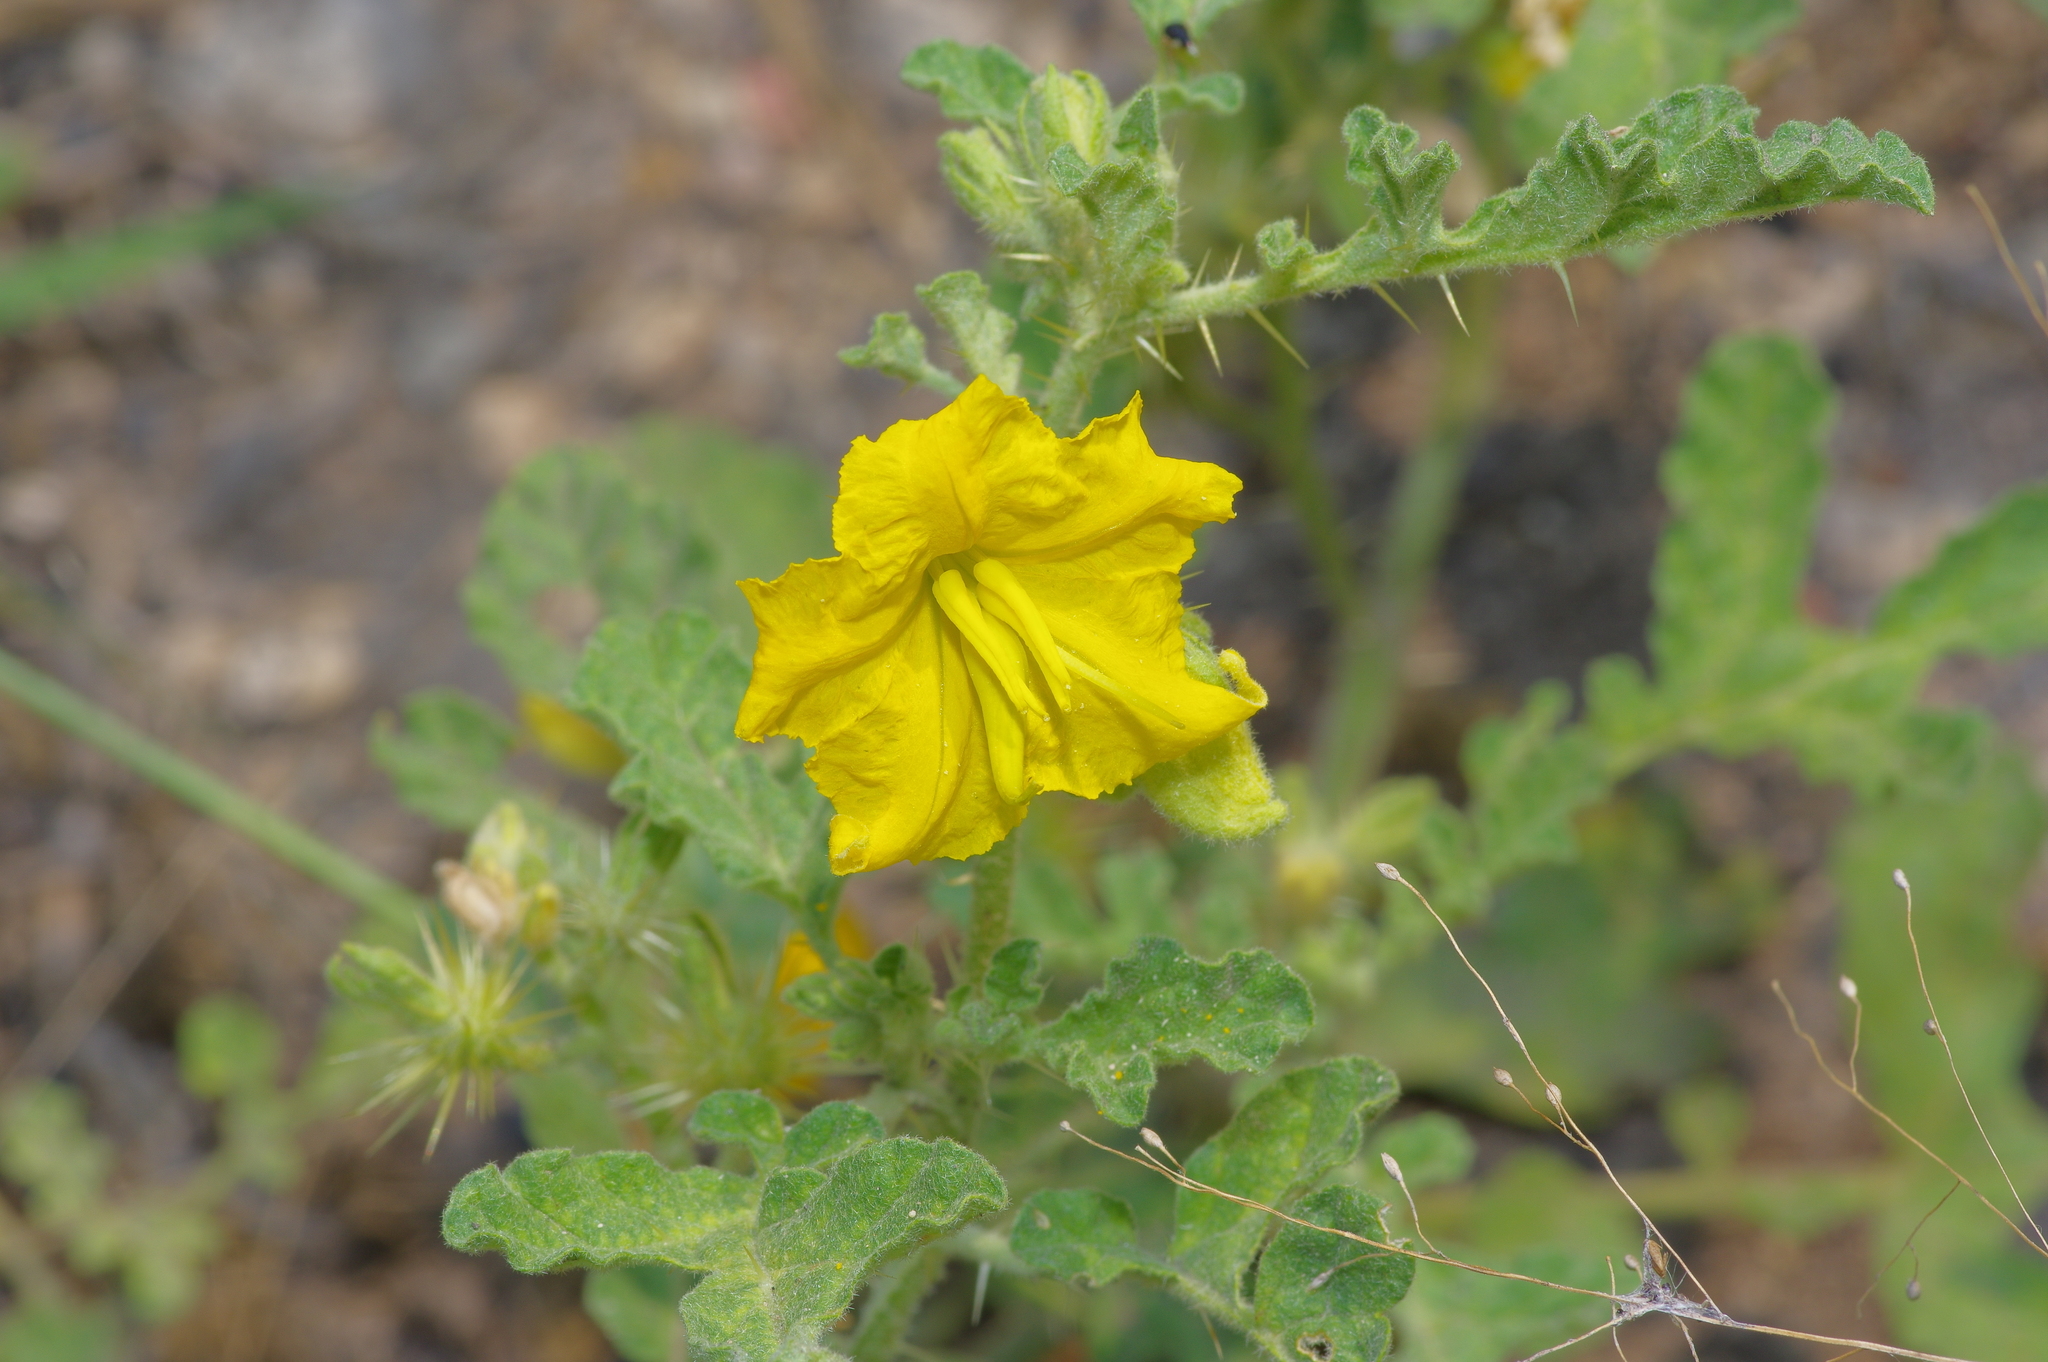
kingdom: Plantae
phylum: Tracheophyta
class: Magnoliopsida
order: Solanales
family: Solanaceae
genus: Solanum
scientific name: Solanum angustifolium
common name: Buffalobur nightshade
